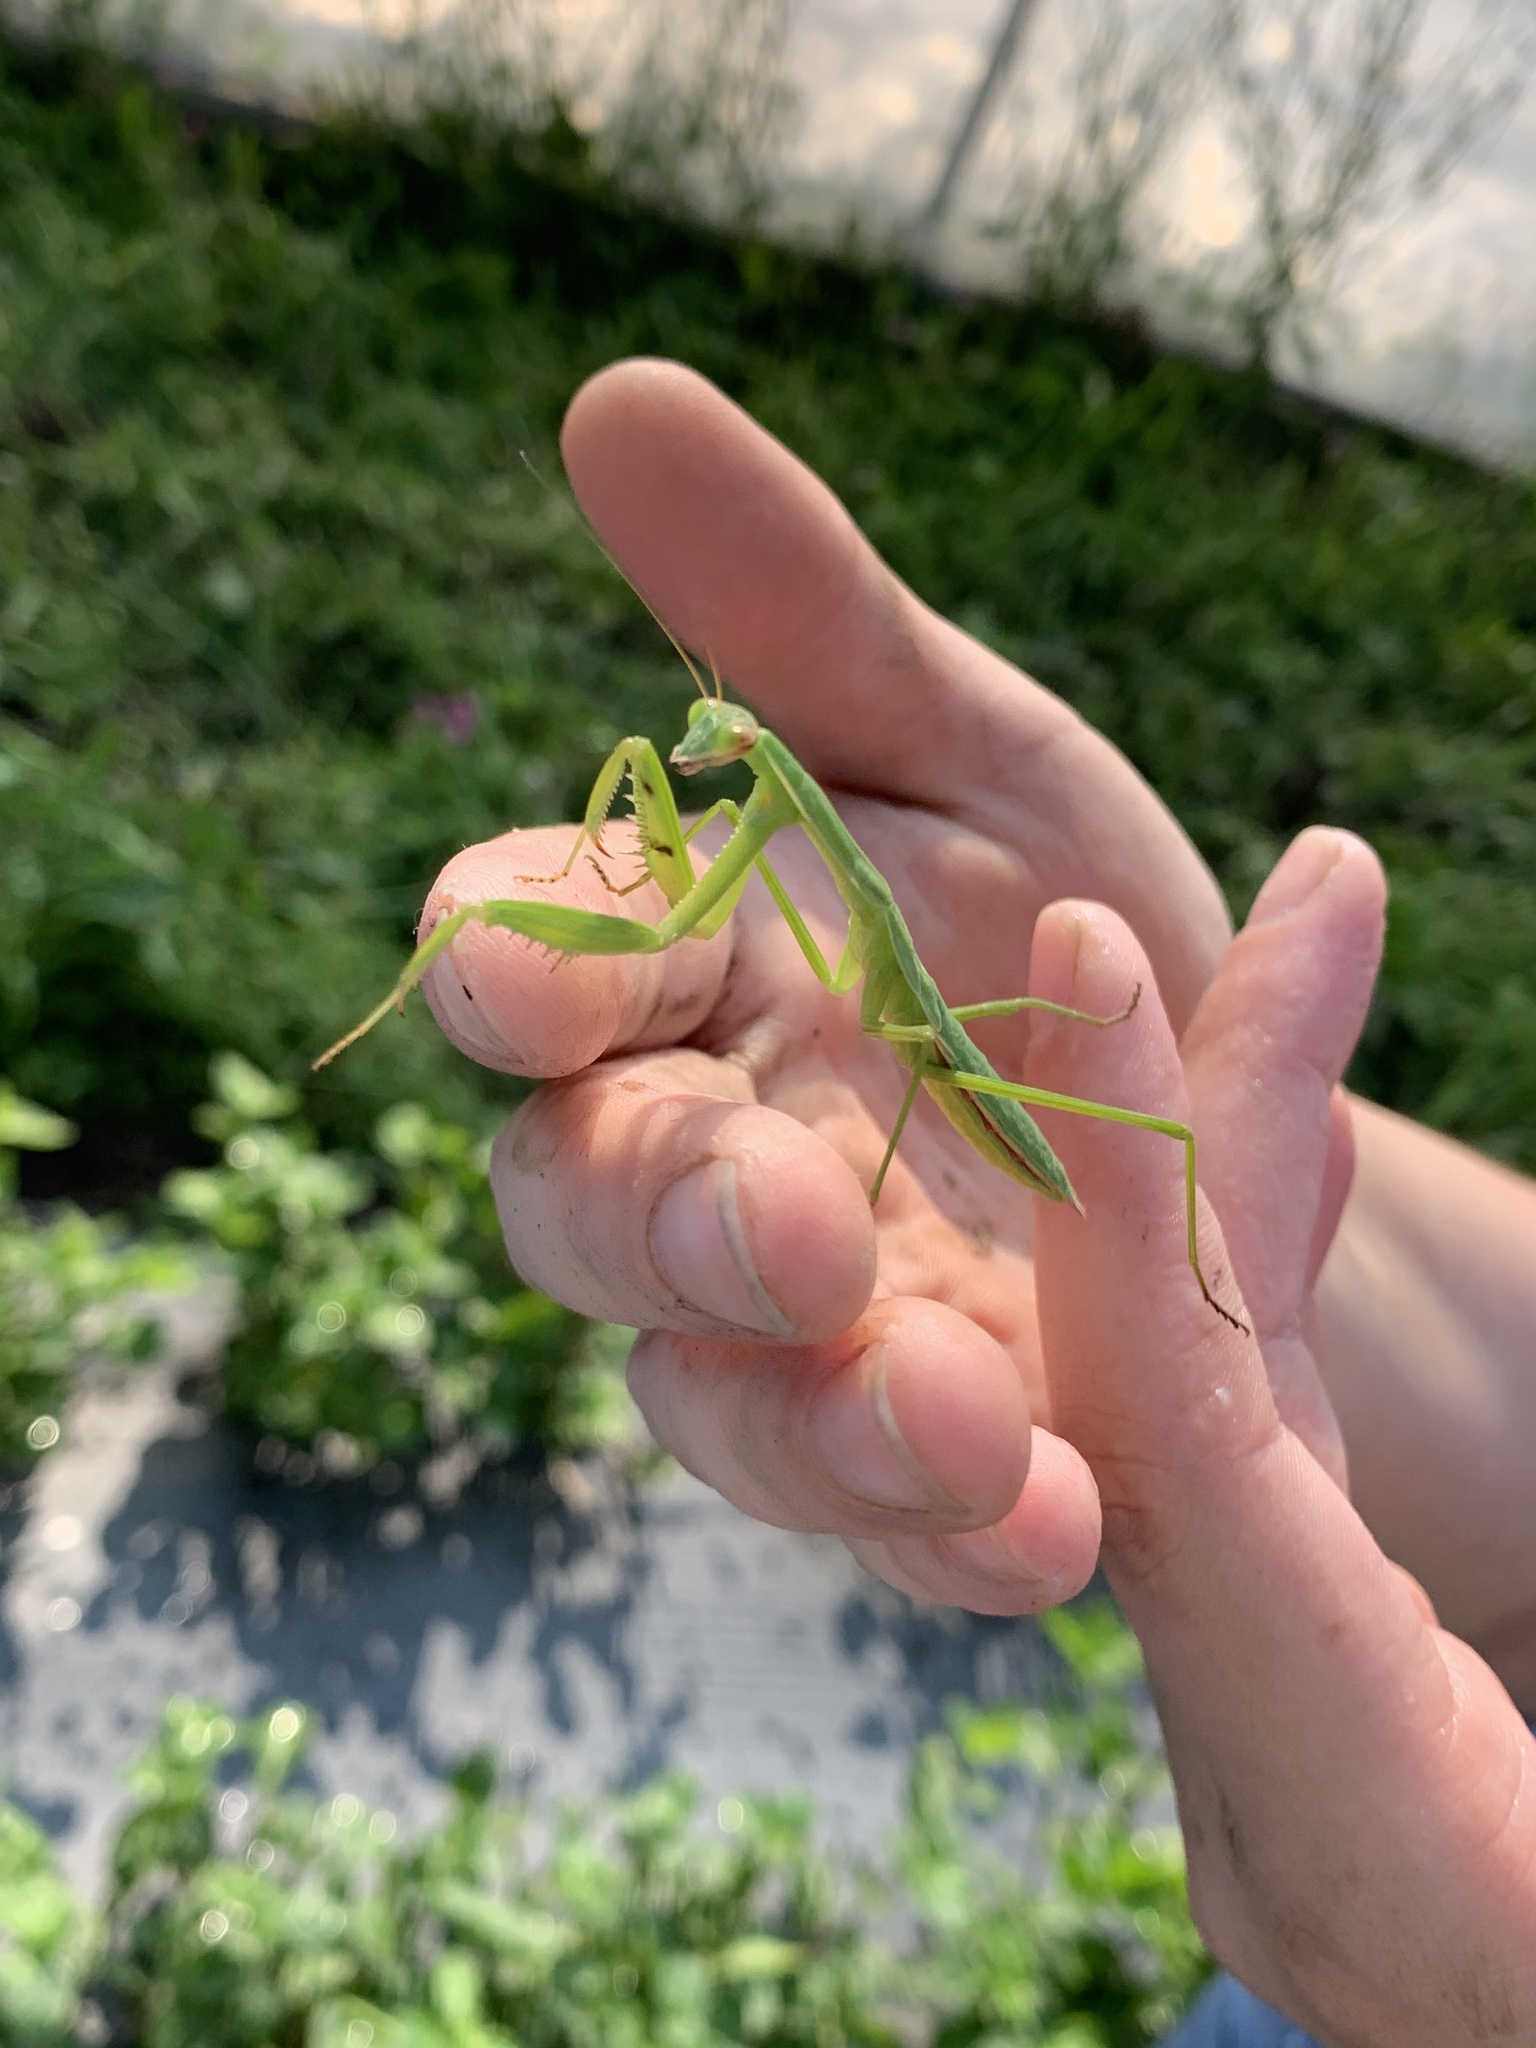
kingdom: Animalia
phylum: Arthropoda
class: Insecta
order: Mantodea
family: Mantidae
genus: Tenodera
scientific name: Tenodera sinensis
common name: Chinese mantis
